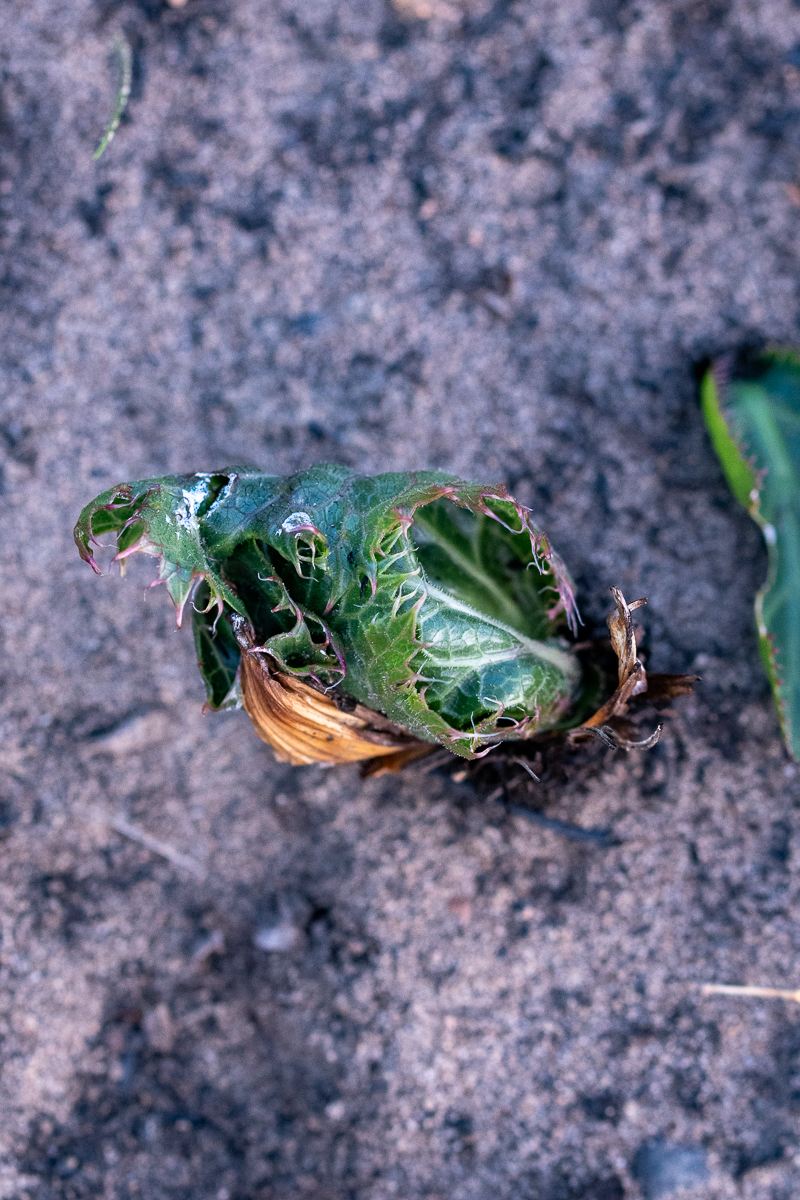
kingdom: Plantae
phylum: Tracheophyta
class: Magnoliopsida
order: Apiales
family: Apiaceae
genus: Lichtensteinia
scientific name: Lichtensteinia lacera
